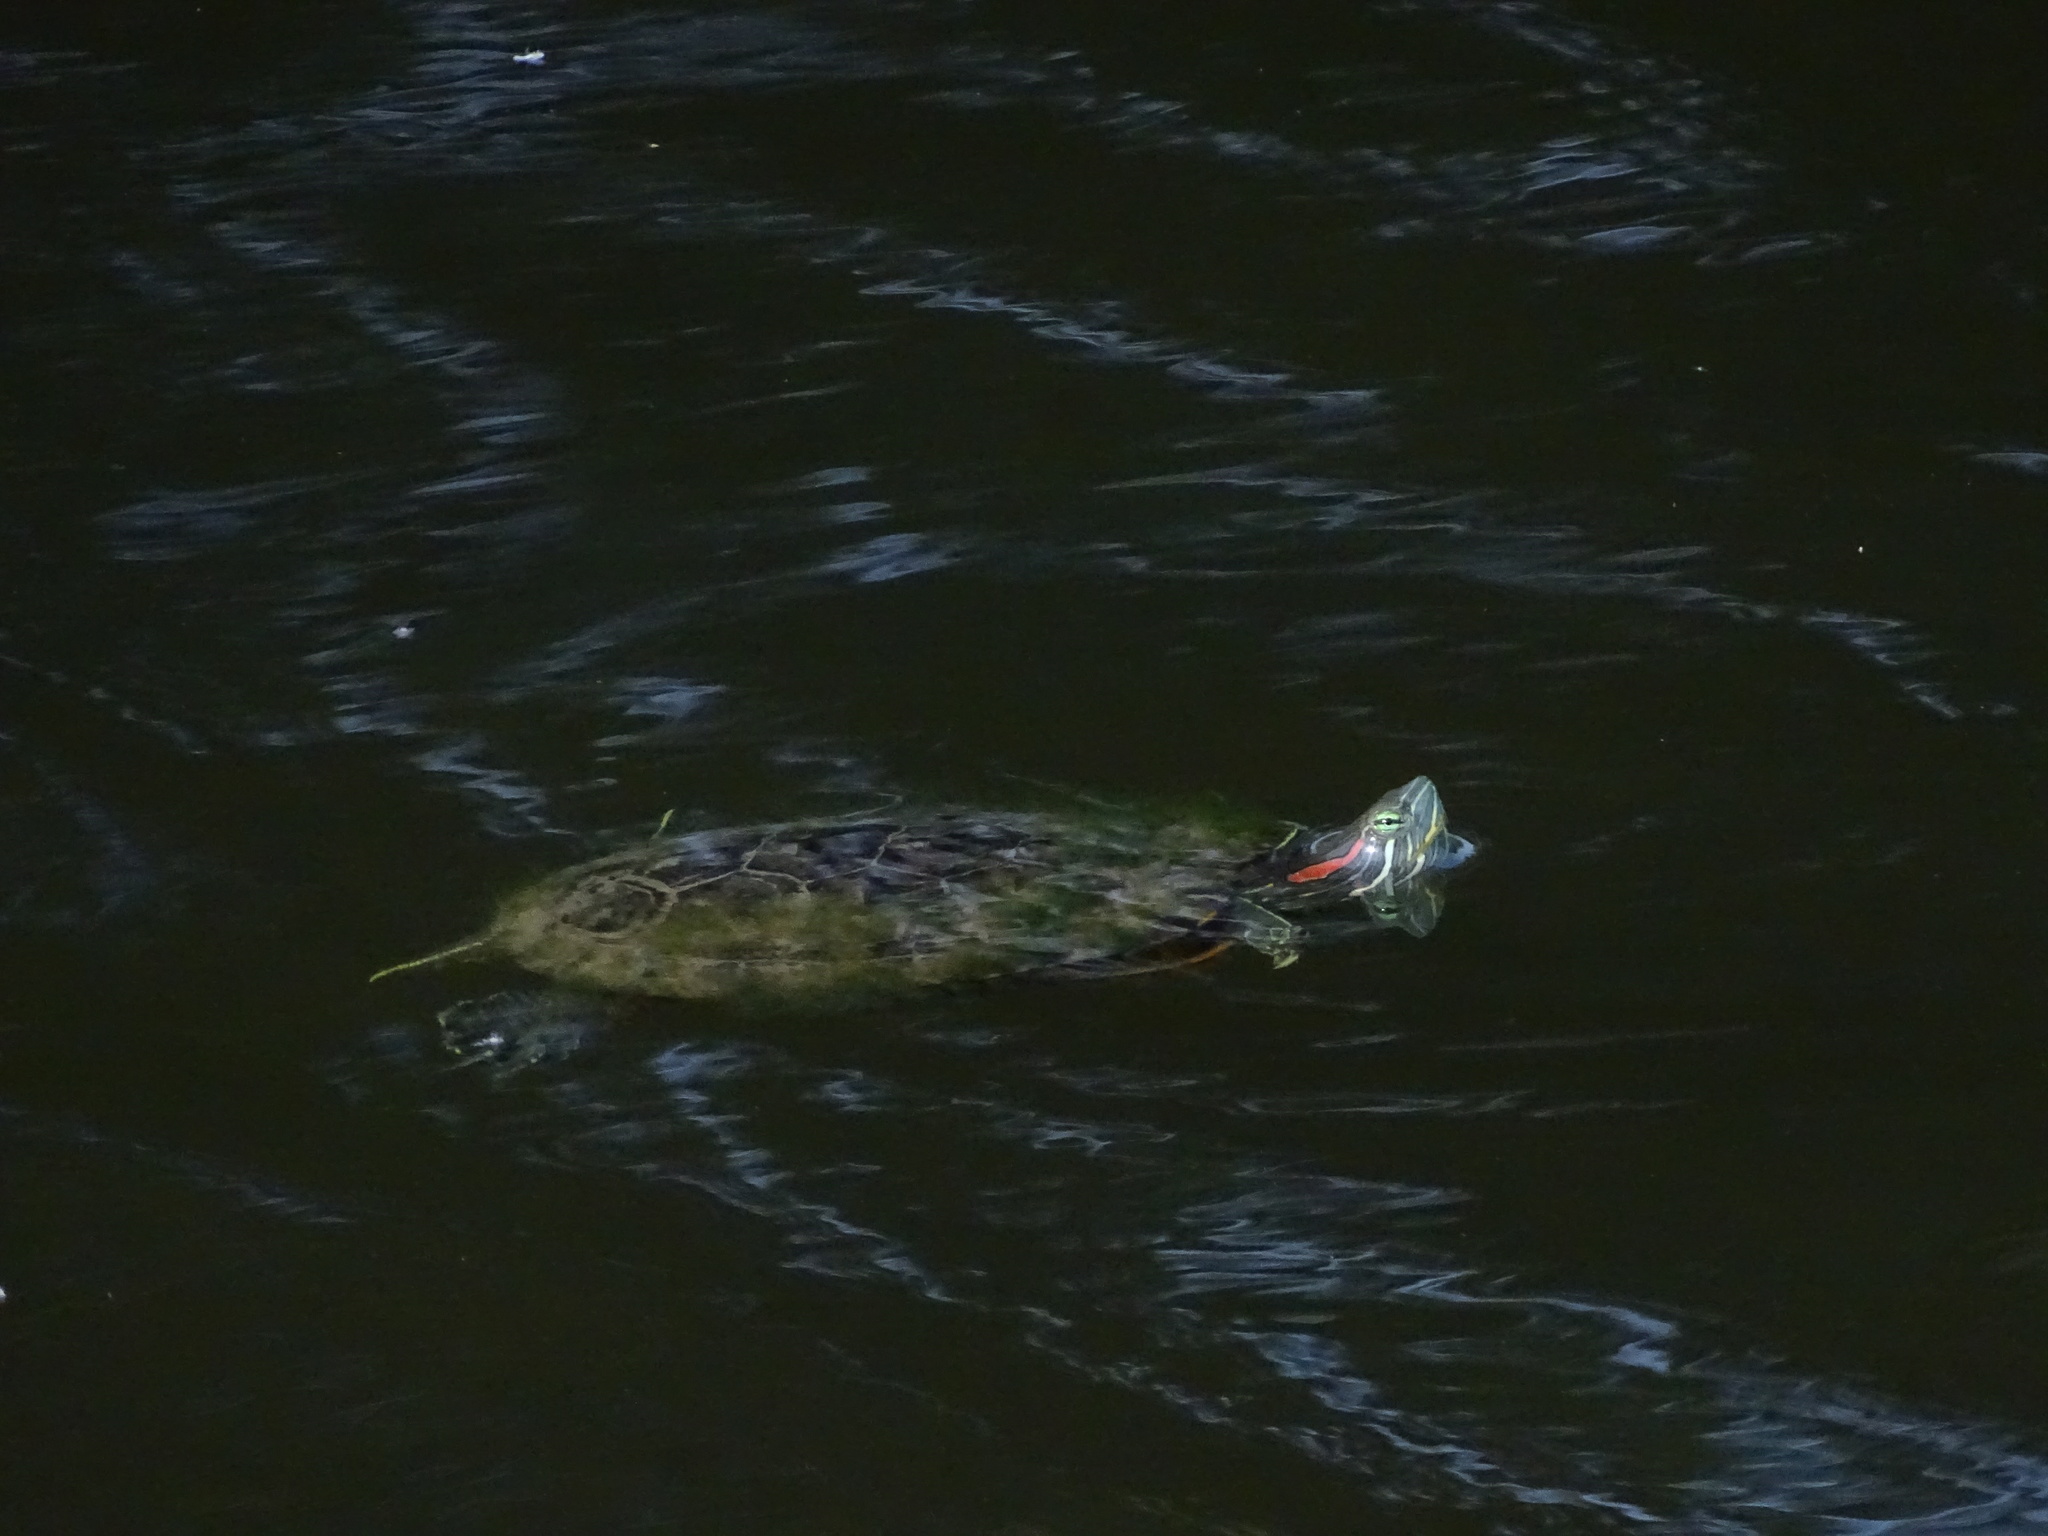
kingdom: Animalia
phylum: Chordata
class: Testudines
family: Emydidae
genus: Trachemys
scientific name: Trachemys scripta
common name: Slider
